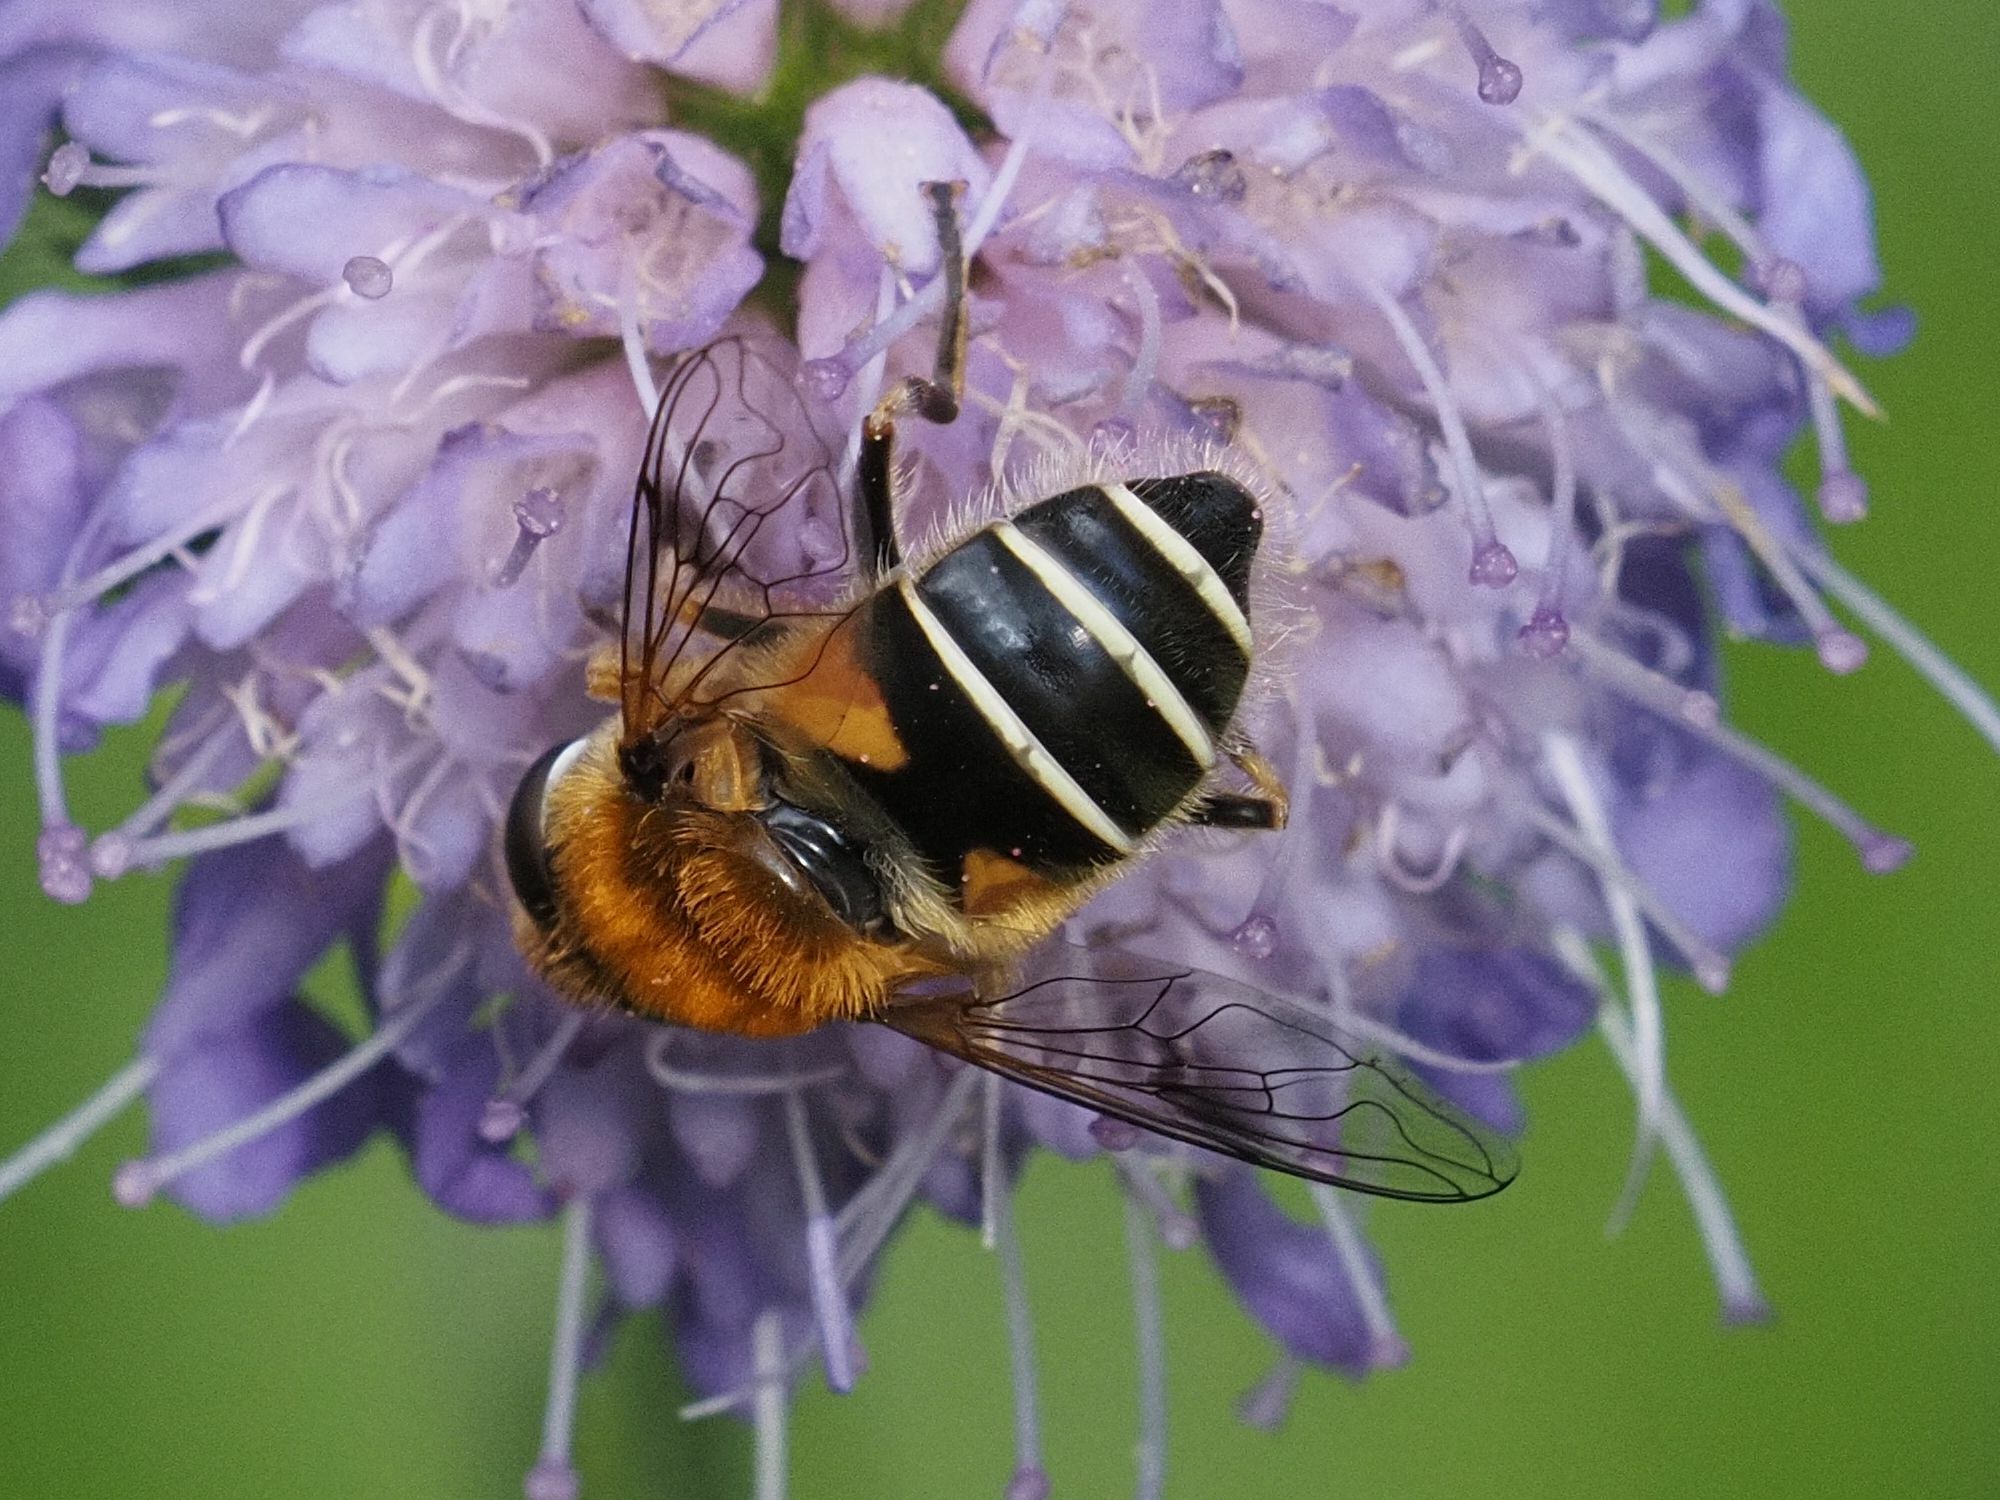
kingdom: Animalia
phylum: Arthropoda
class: Insecta
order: Diptera
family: Syrphidae
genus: Eristalis
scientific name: Eristalis jugorum
